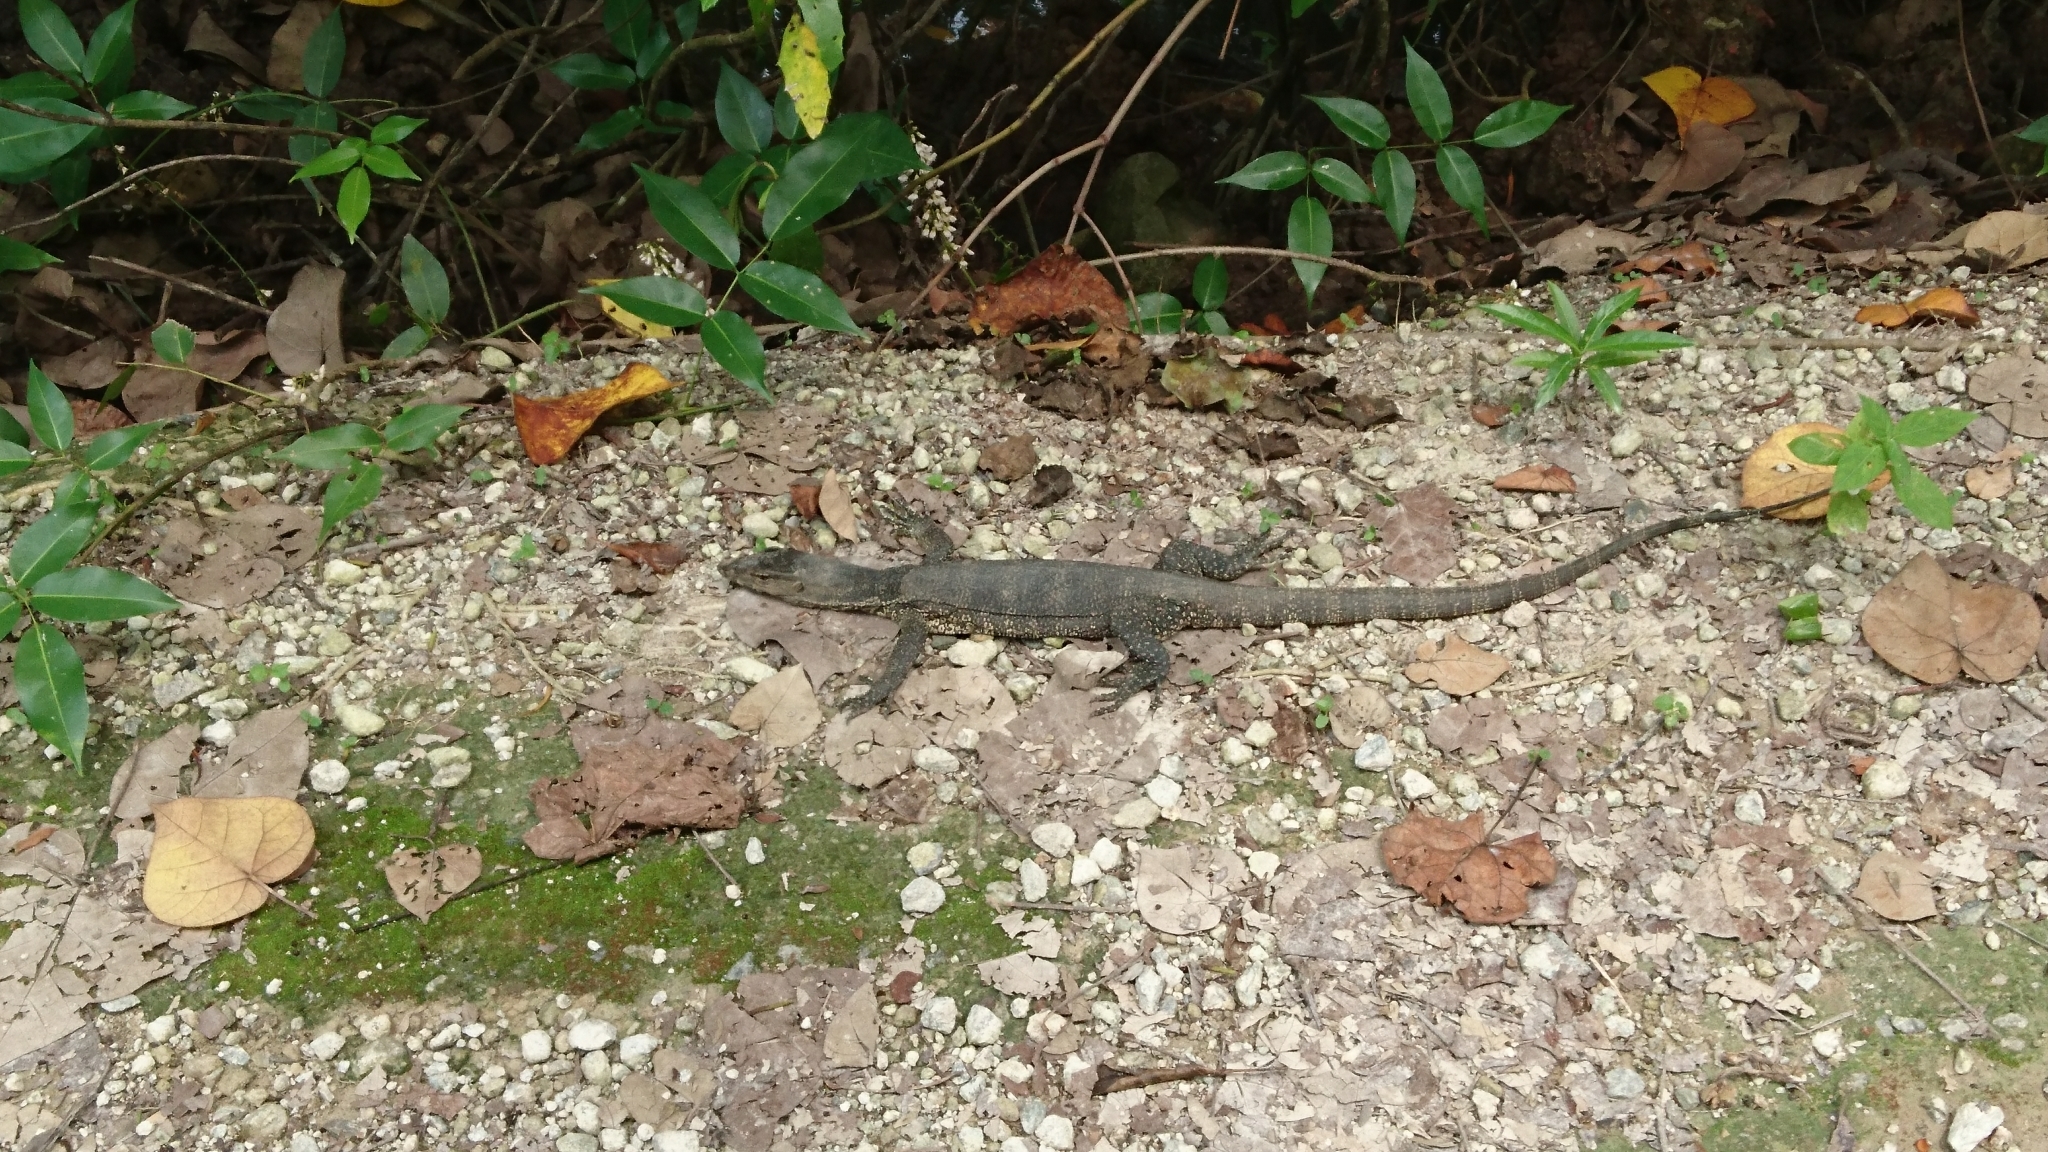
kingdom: Animalia
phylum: Chordata
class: Squamata
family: Varanidae
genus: Varanus
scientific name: Varanus salvator
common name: Common water monitor
